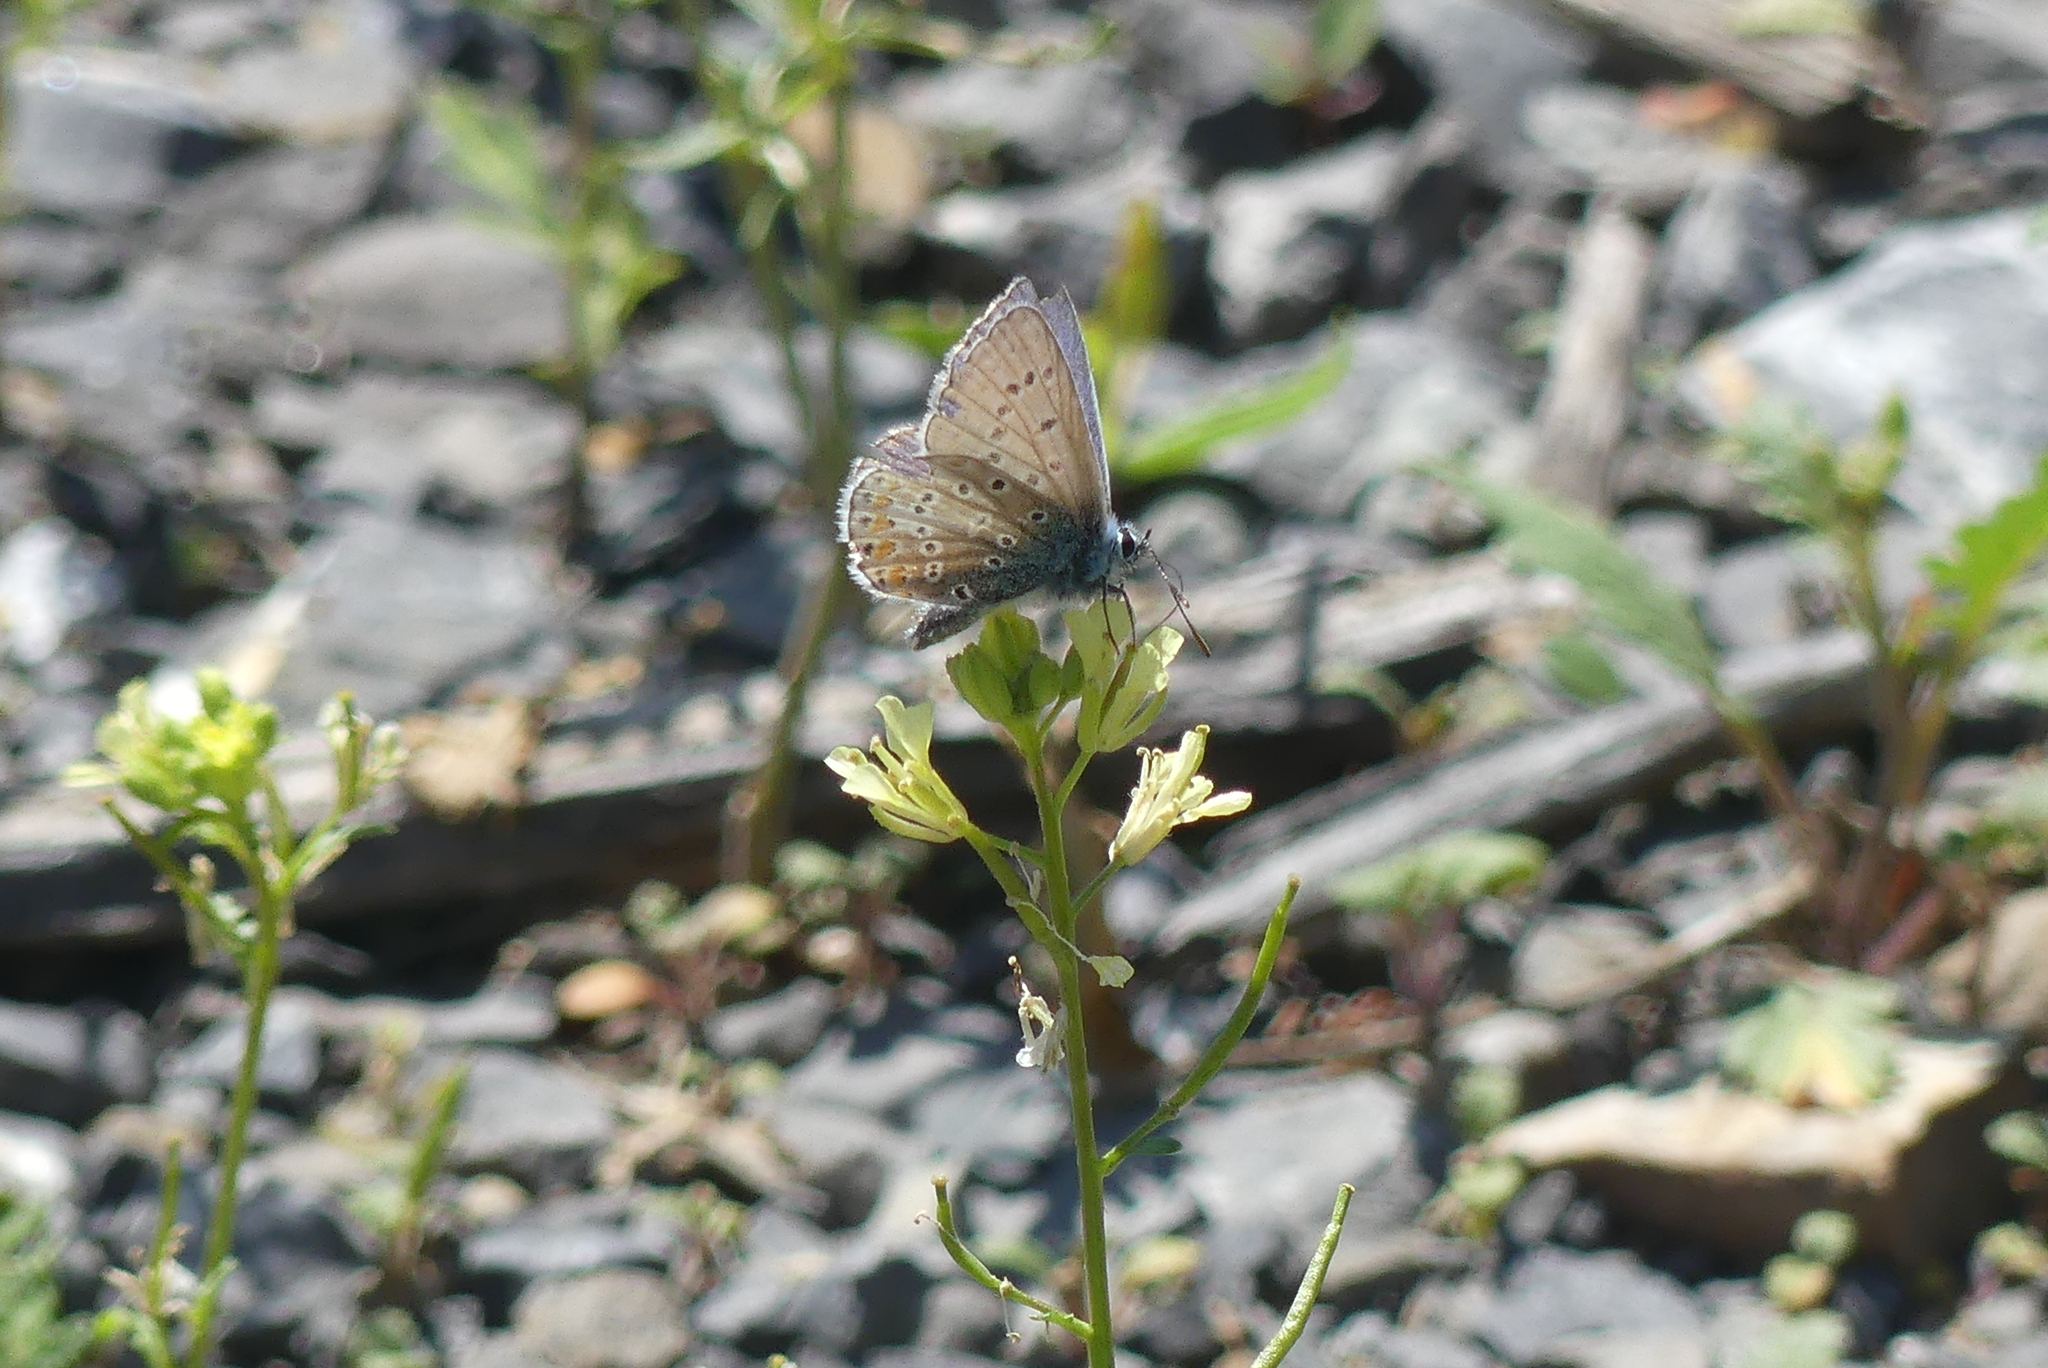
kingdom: Animalia
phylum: Arthropoda
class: Insecta
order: Lepidoptera
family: Lycaenidae
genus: Polyommatus
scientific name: Polyommatus icarus
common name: Common blue
